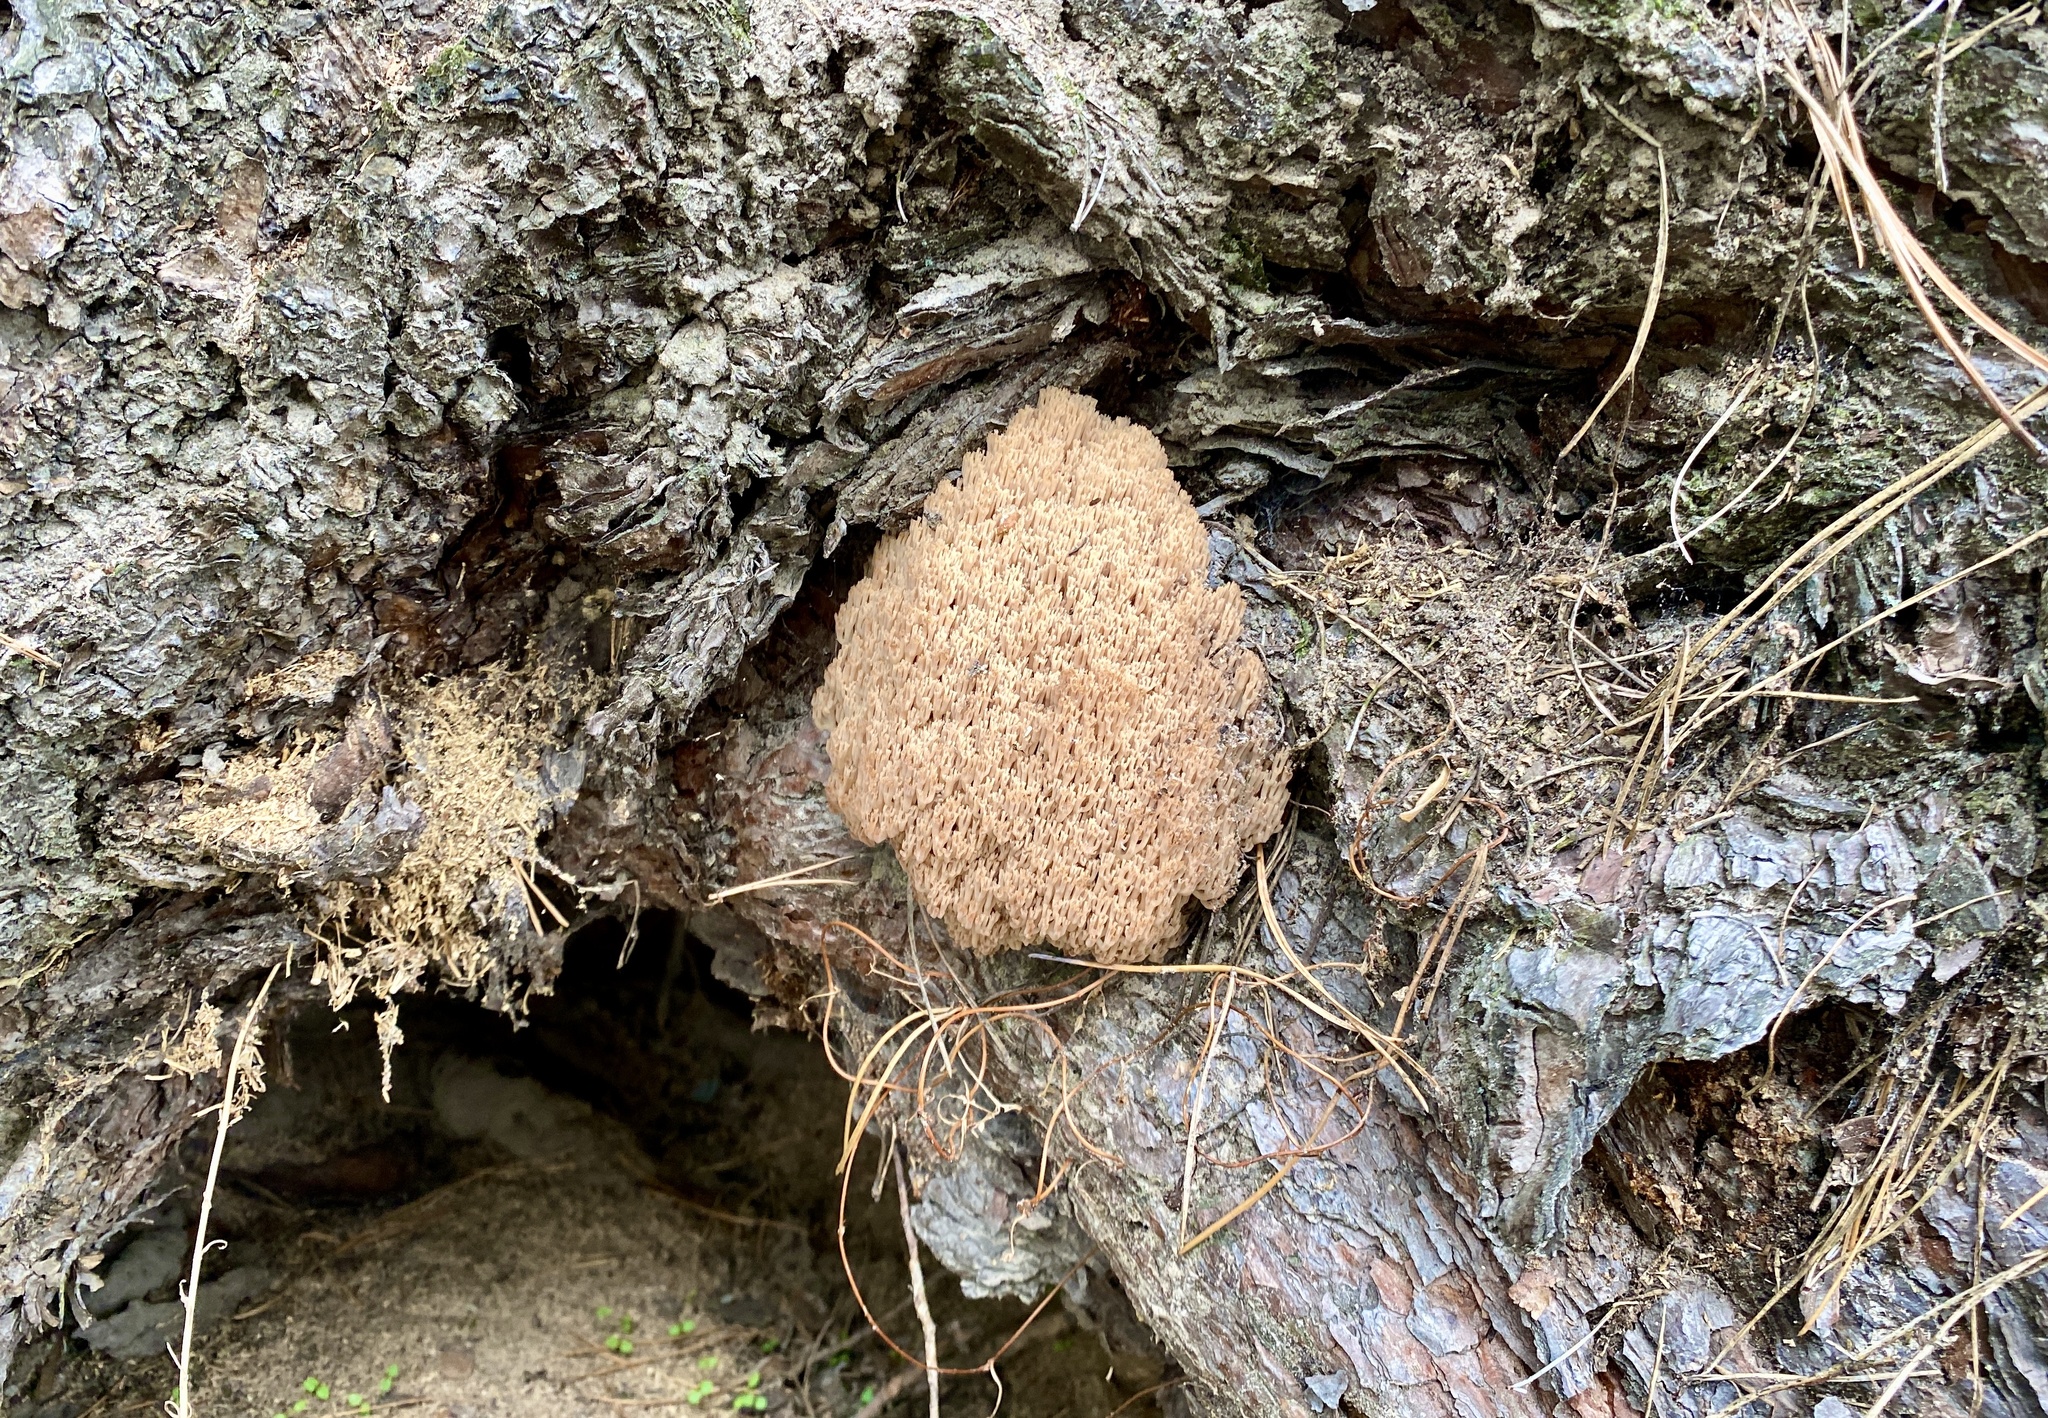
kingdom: Fungi
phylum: Basidiomycota
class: Agaricomycetes
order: Russulales
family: Auriscalpiaceae
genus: Artomyces
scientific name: Artomyces pyxidatus
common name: Crown-tipped coral fungus
